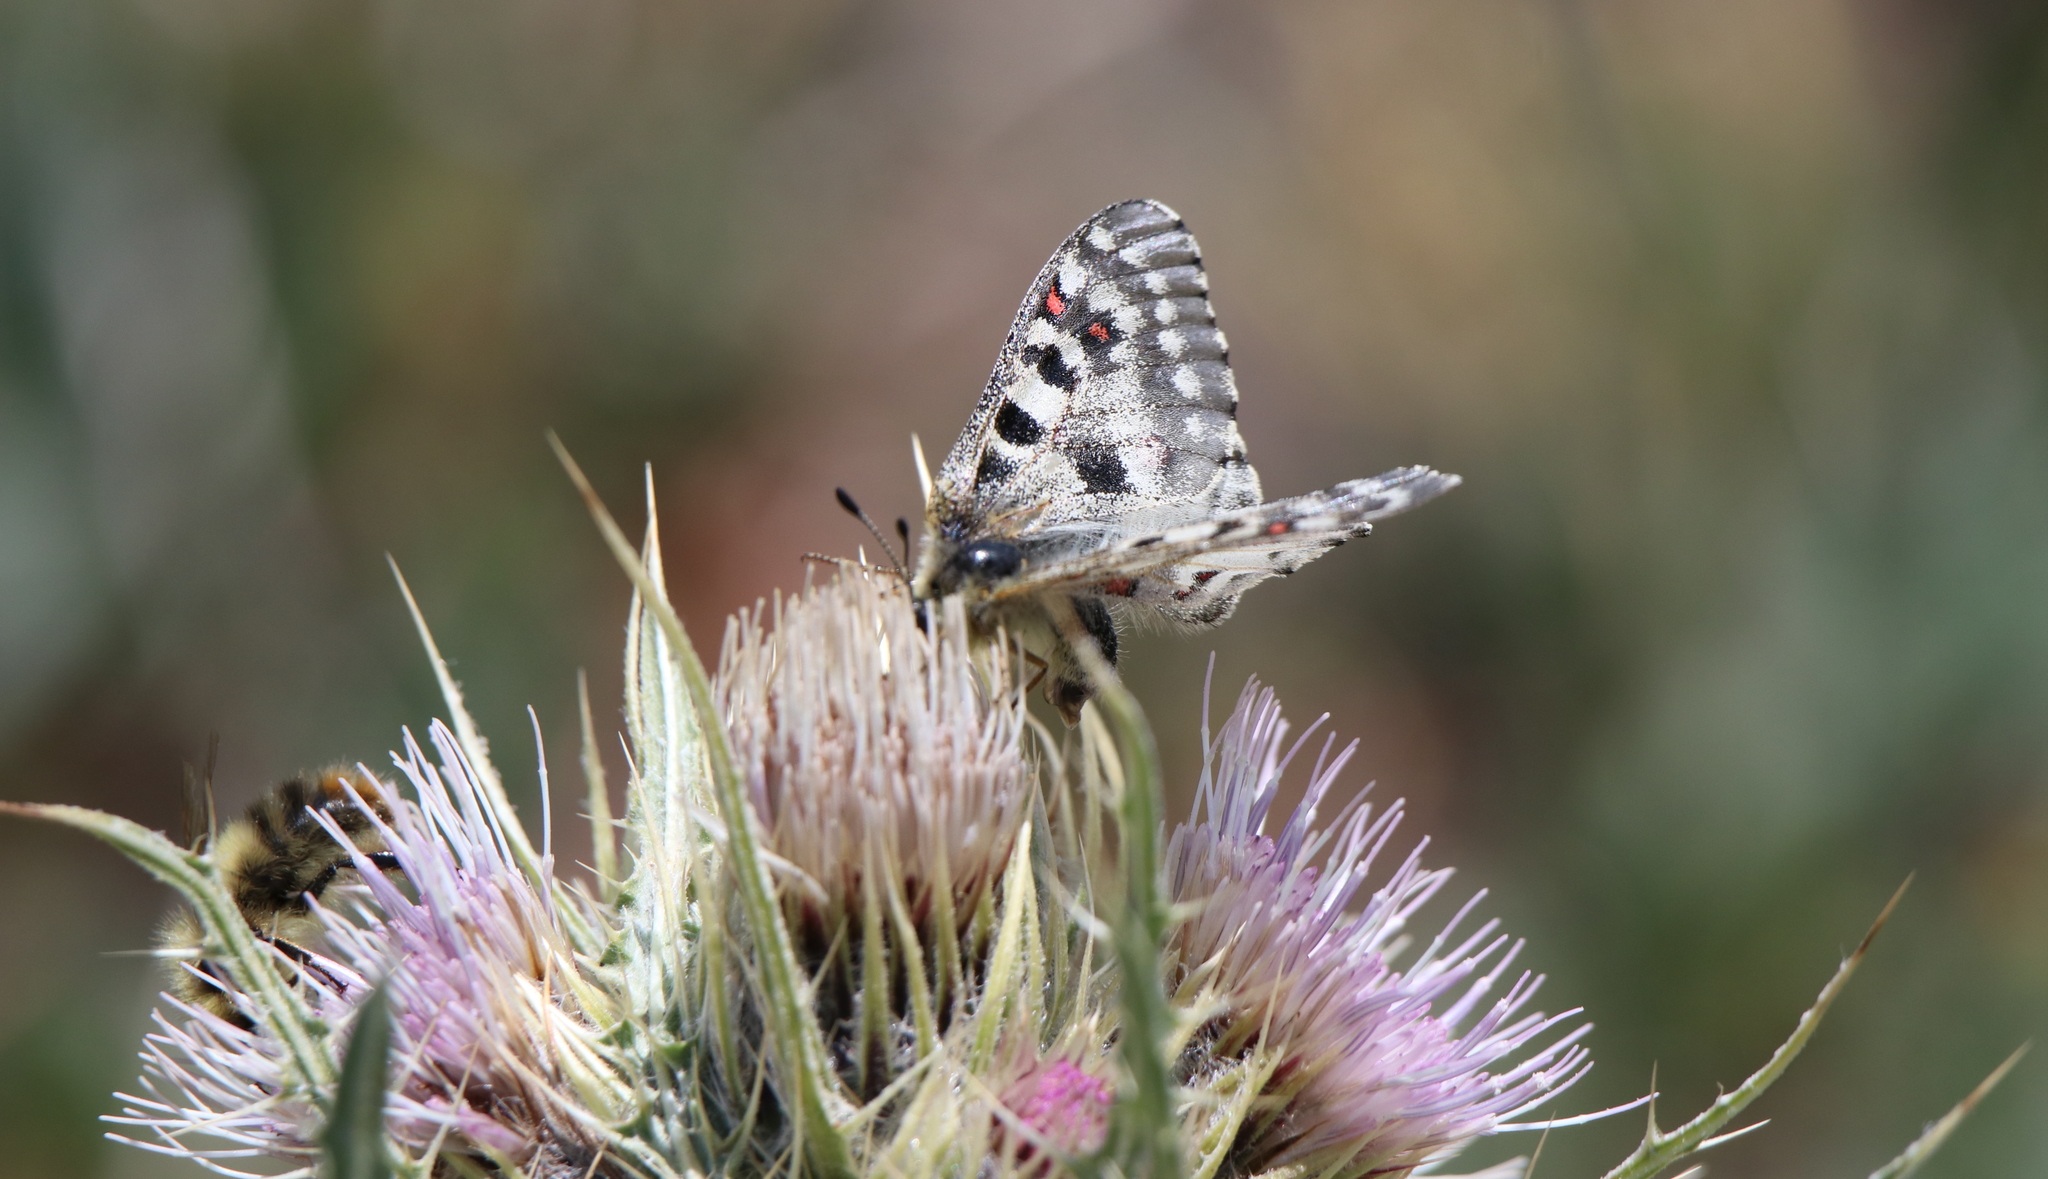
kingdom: Animalia
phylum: Arthropoda
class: Insecta
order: Lepidoptera
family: Papilionidae
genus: Parnassius
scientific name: Parnassius smintheus
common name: Mountain parnassian
